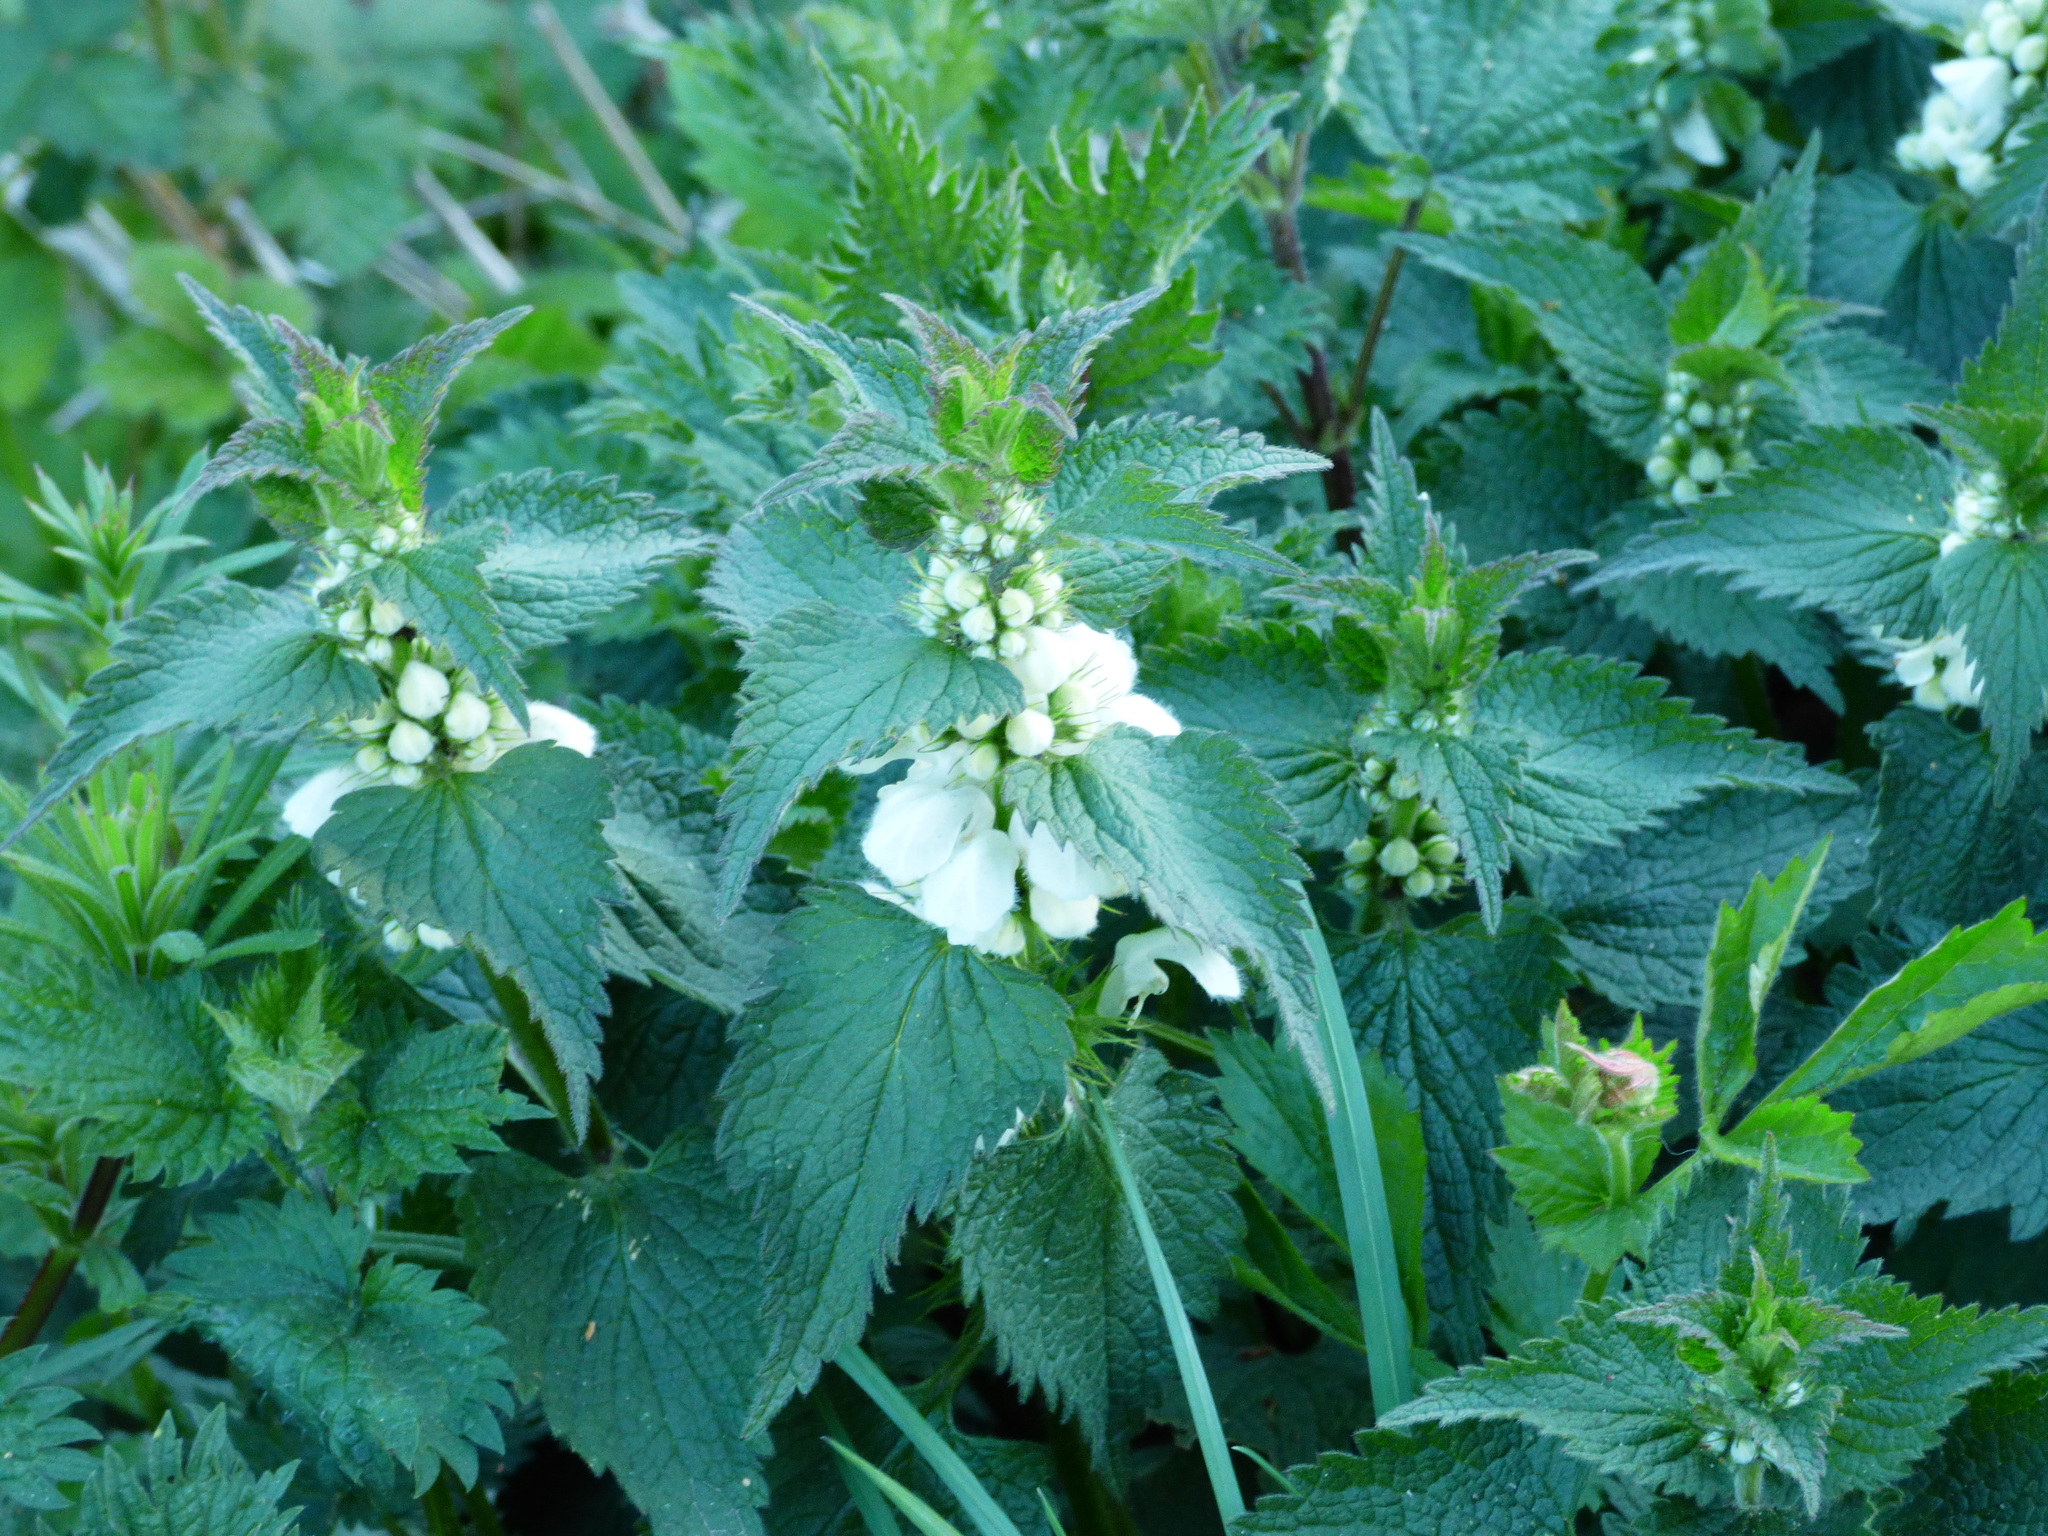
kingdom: Plantae
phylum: Tracheophyta
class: Magnoliopsida
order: Lamiales
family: Lamiaceae
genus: Lamium
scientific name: Lamium album
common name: White dead-nettle
